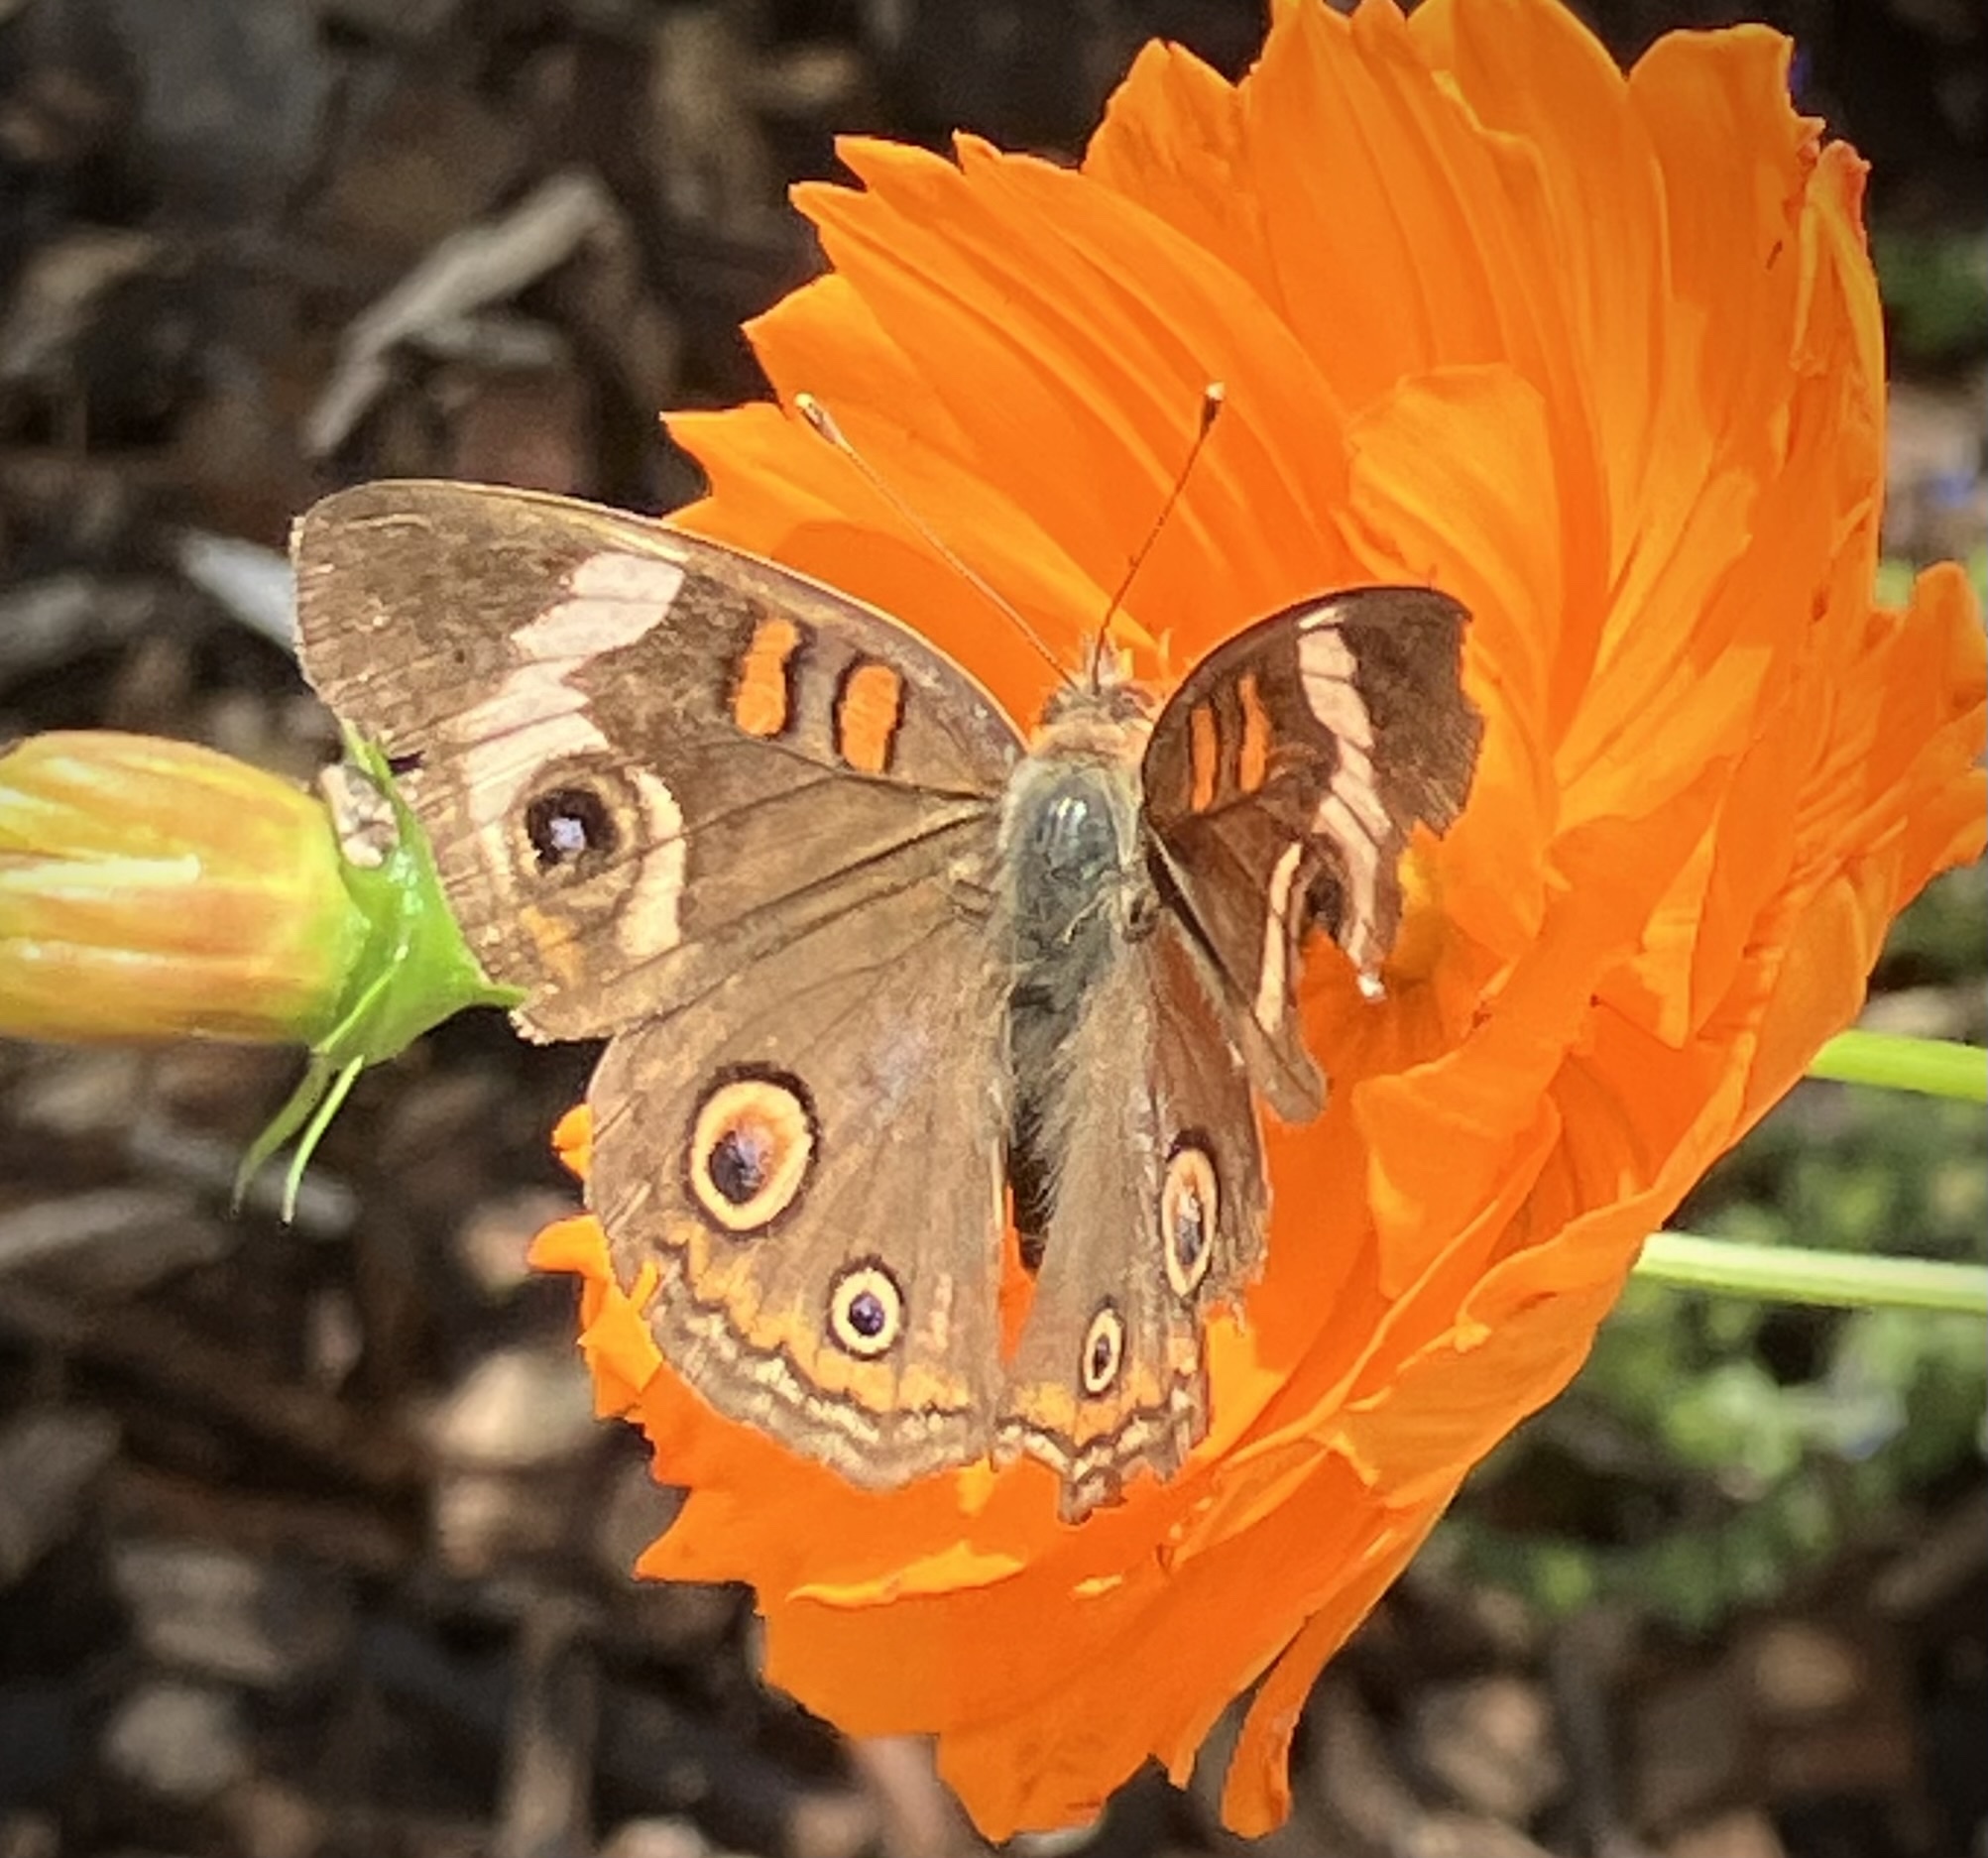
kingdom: Animalia
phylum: Arthropoda
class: Insecta
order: Lepidoptera
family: Nymphalidae
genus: Junonia
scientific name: Junonia coenia
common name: Common buckeye
